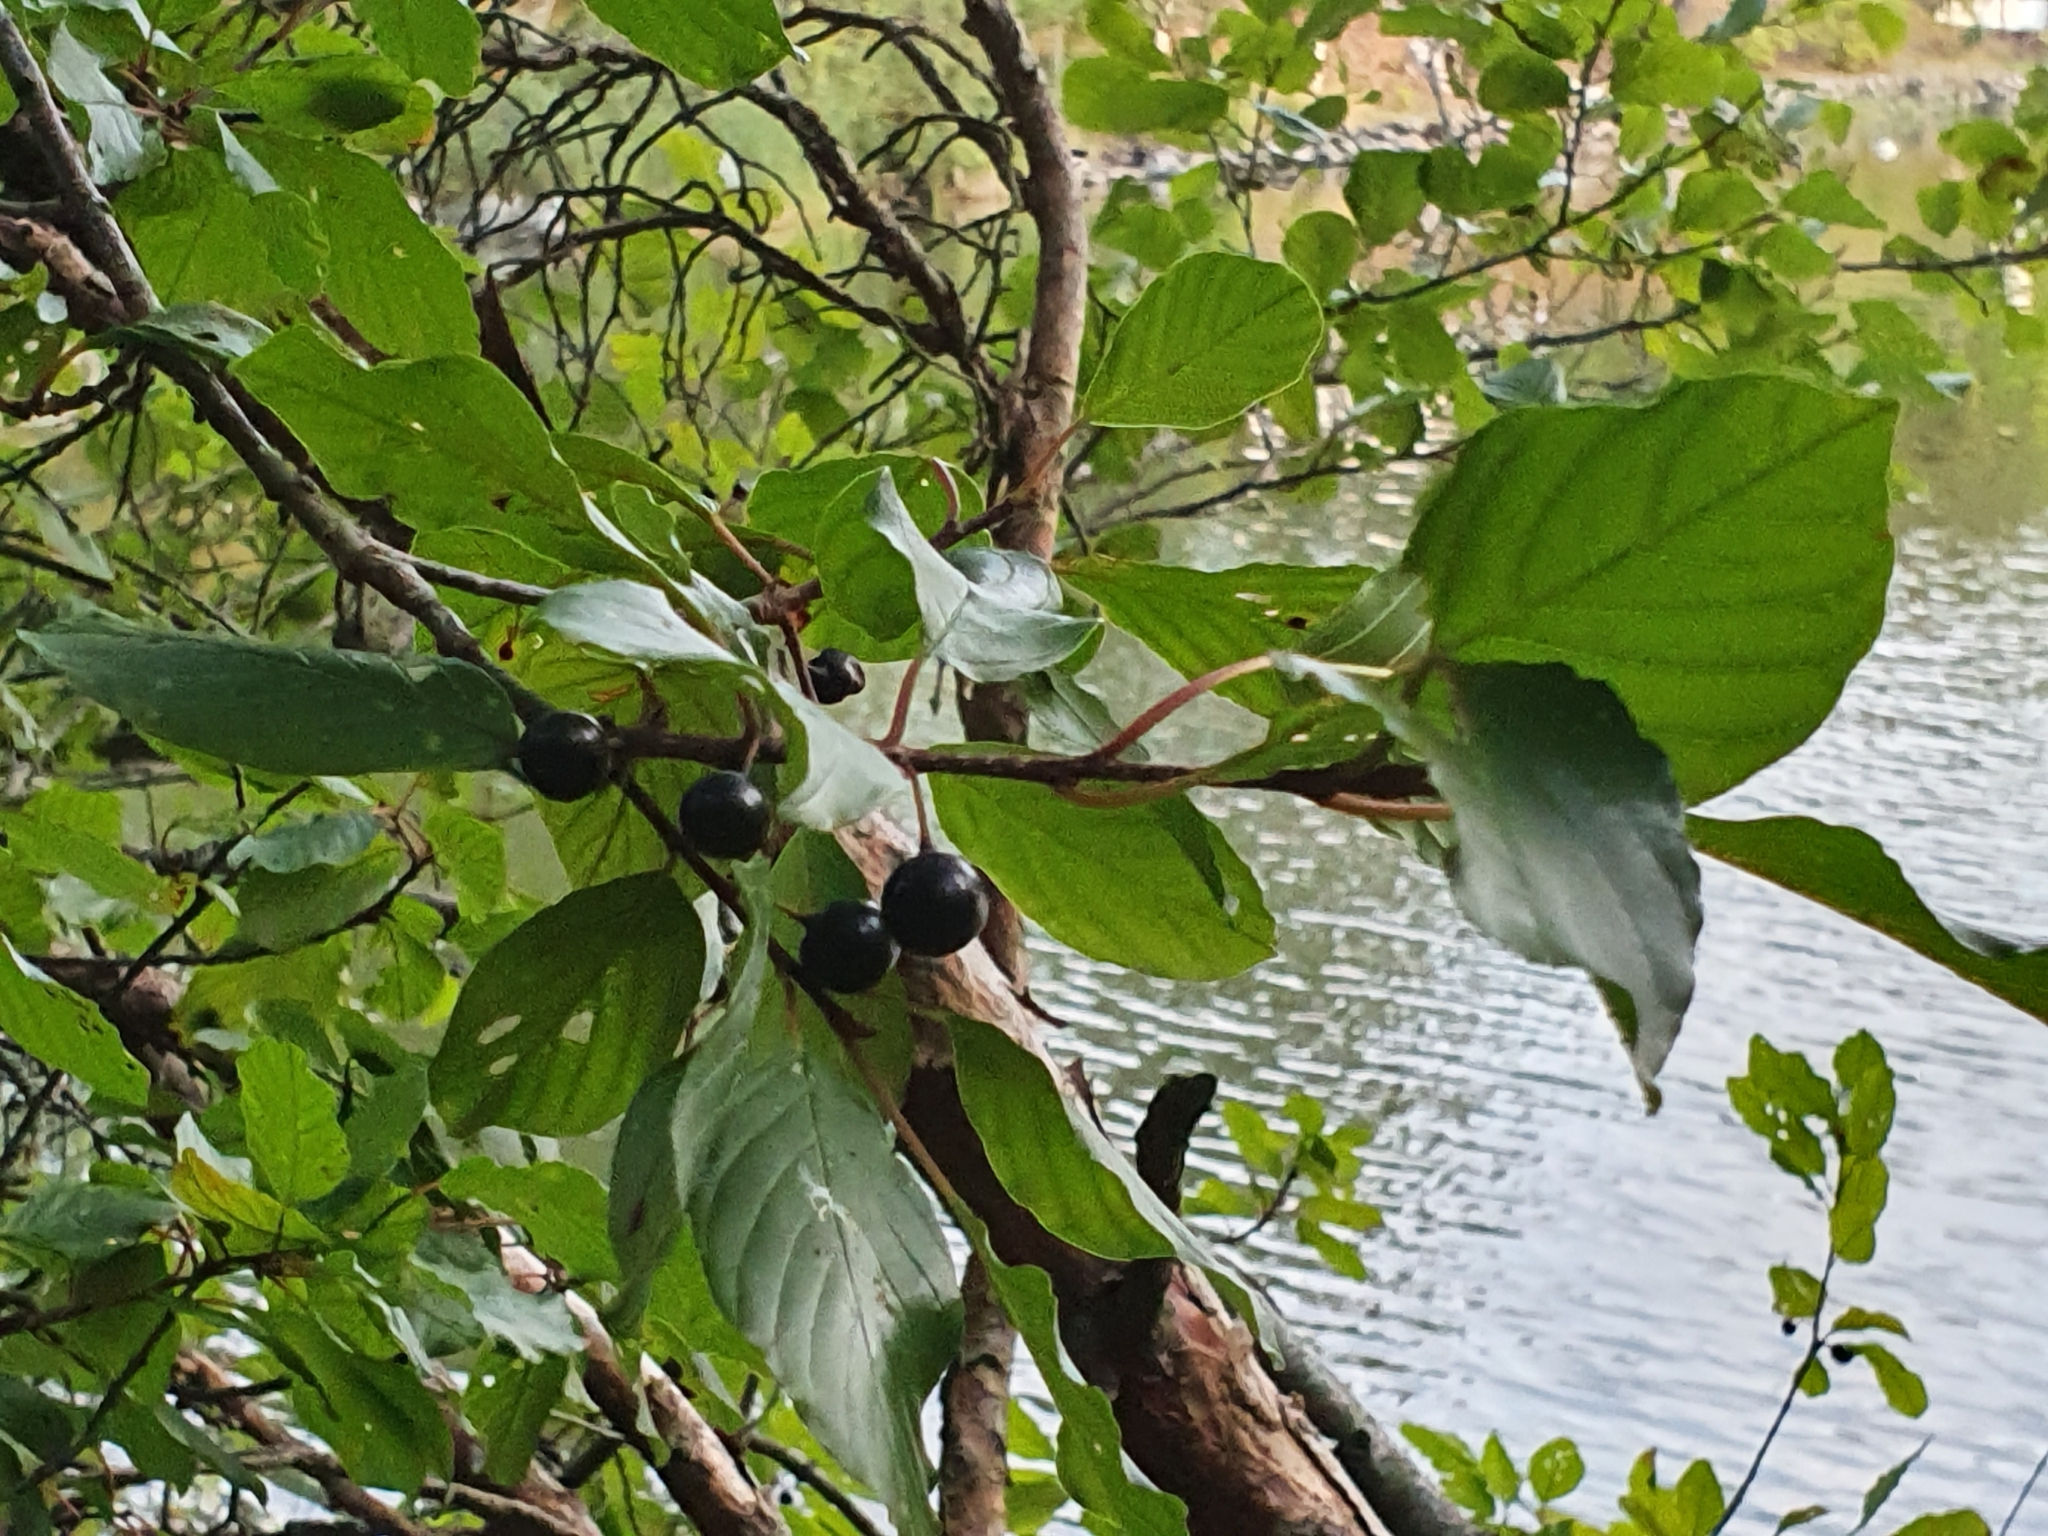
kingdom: Plantae
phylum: Tracheophyta
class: Magnoliopsida
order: Rosales
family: Rhamnaceae
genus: Frangula
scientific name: Frangula alnus
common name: Alder buckthorn
